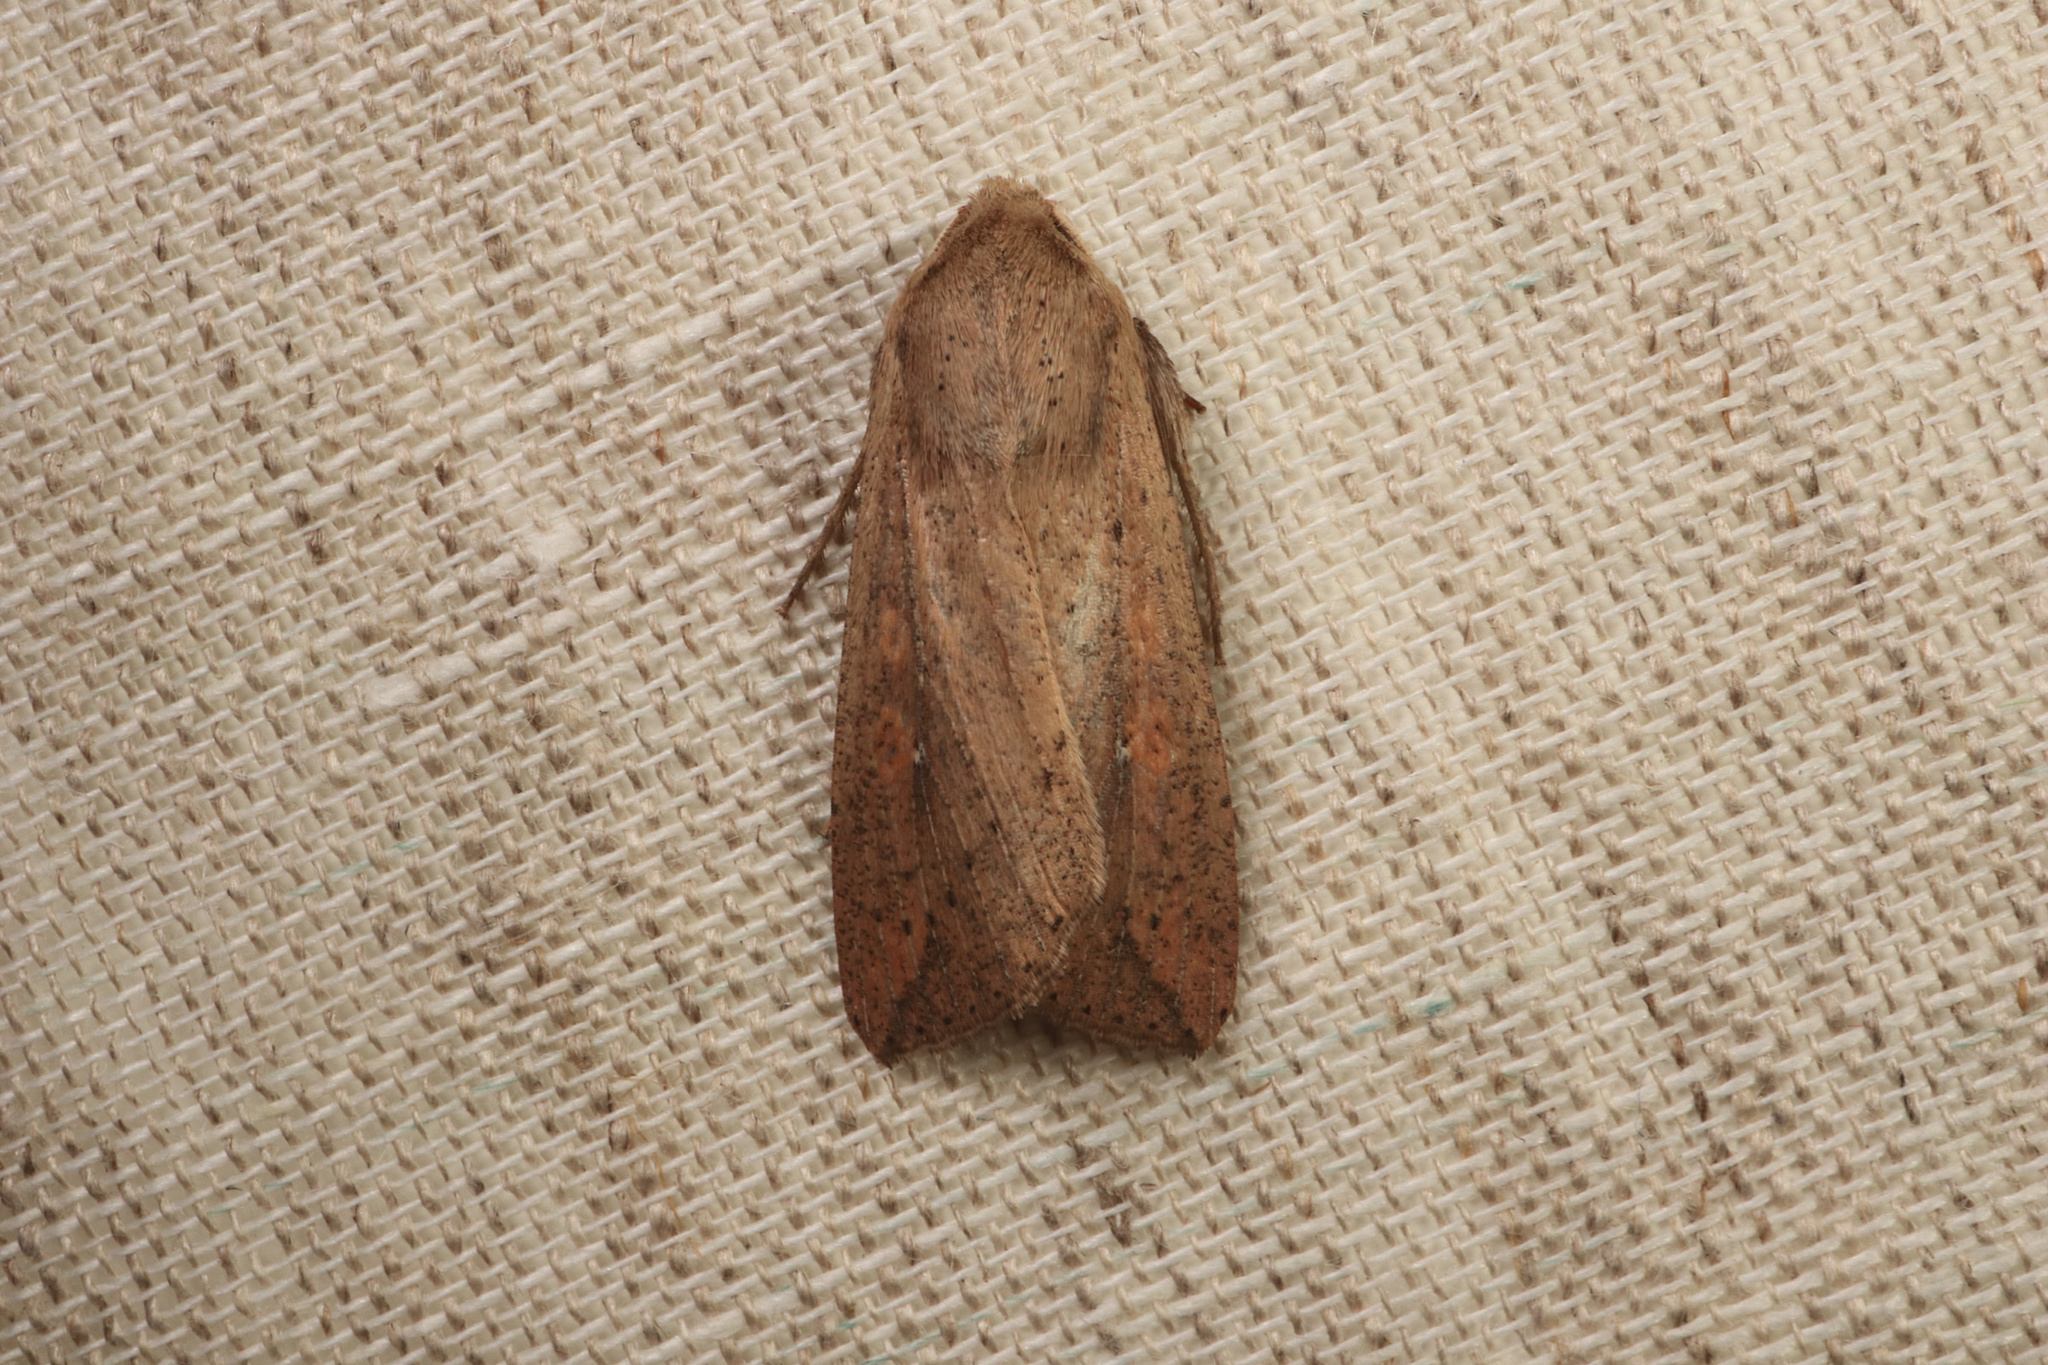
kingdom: Animalia
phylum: Arthropoda
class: Insecta
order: Lepidoptera
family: Noctuidae
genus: Mythimna
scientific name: Mythimna unipuncta
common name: White-speck
